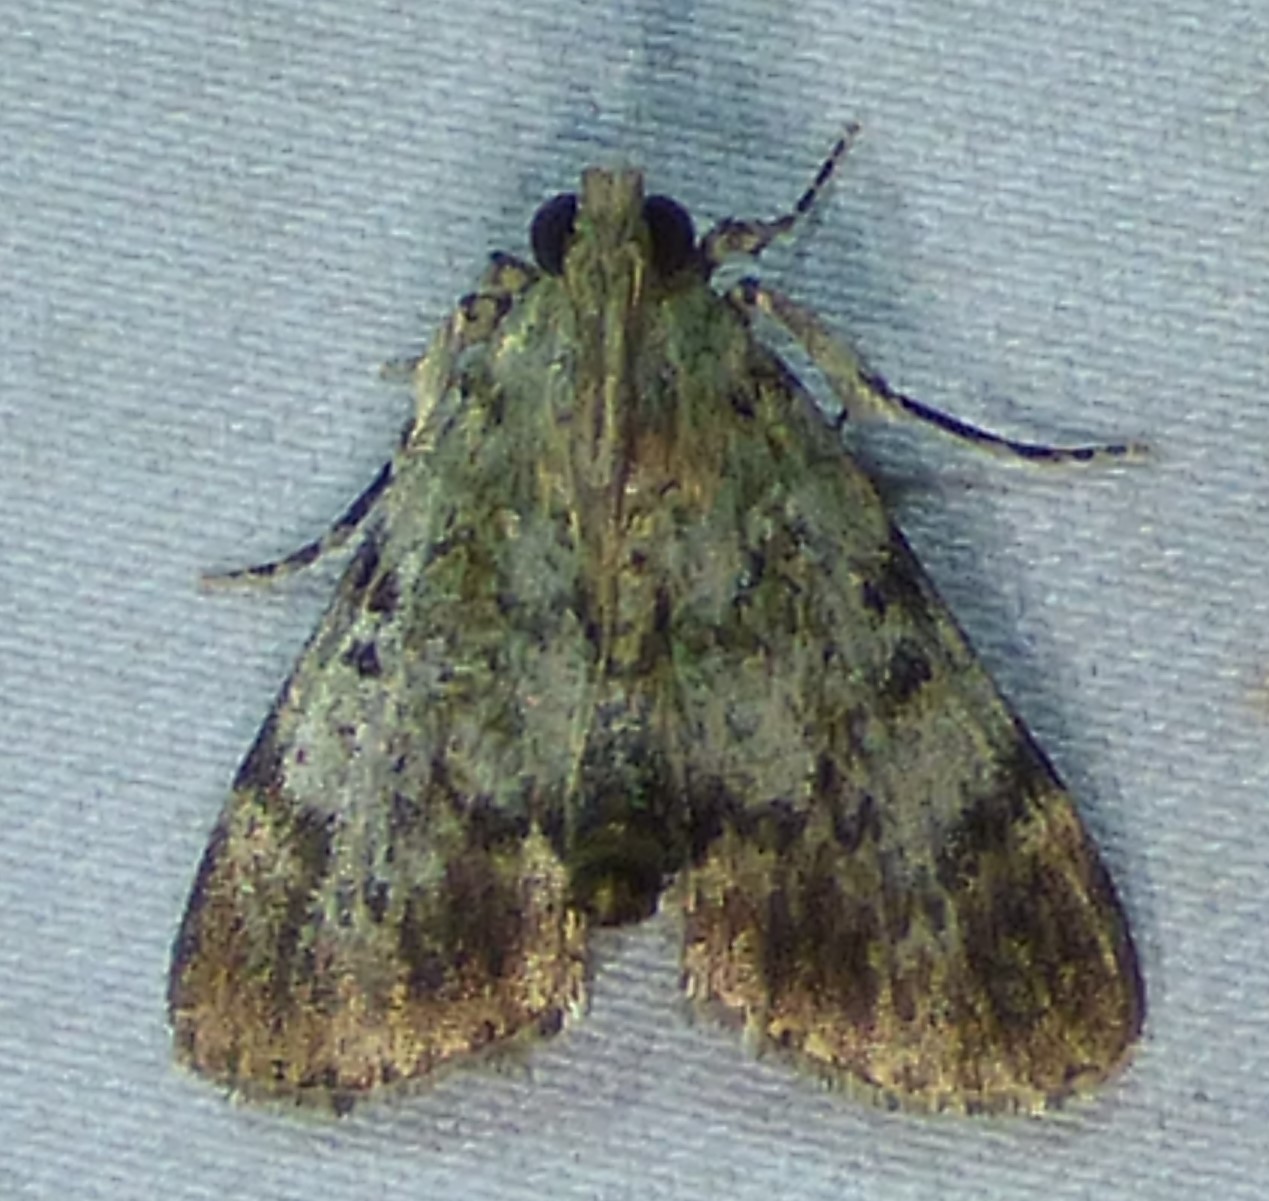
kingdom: Animalia
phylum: Arthropoda
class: Insecta
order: Lepidoptera
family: Pyralidae
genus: Epipaschia
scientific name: Epipaschia superatalis
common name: Dimorphic macalla moth
